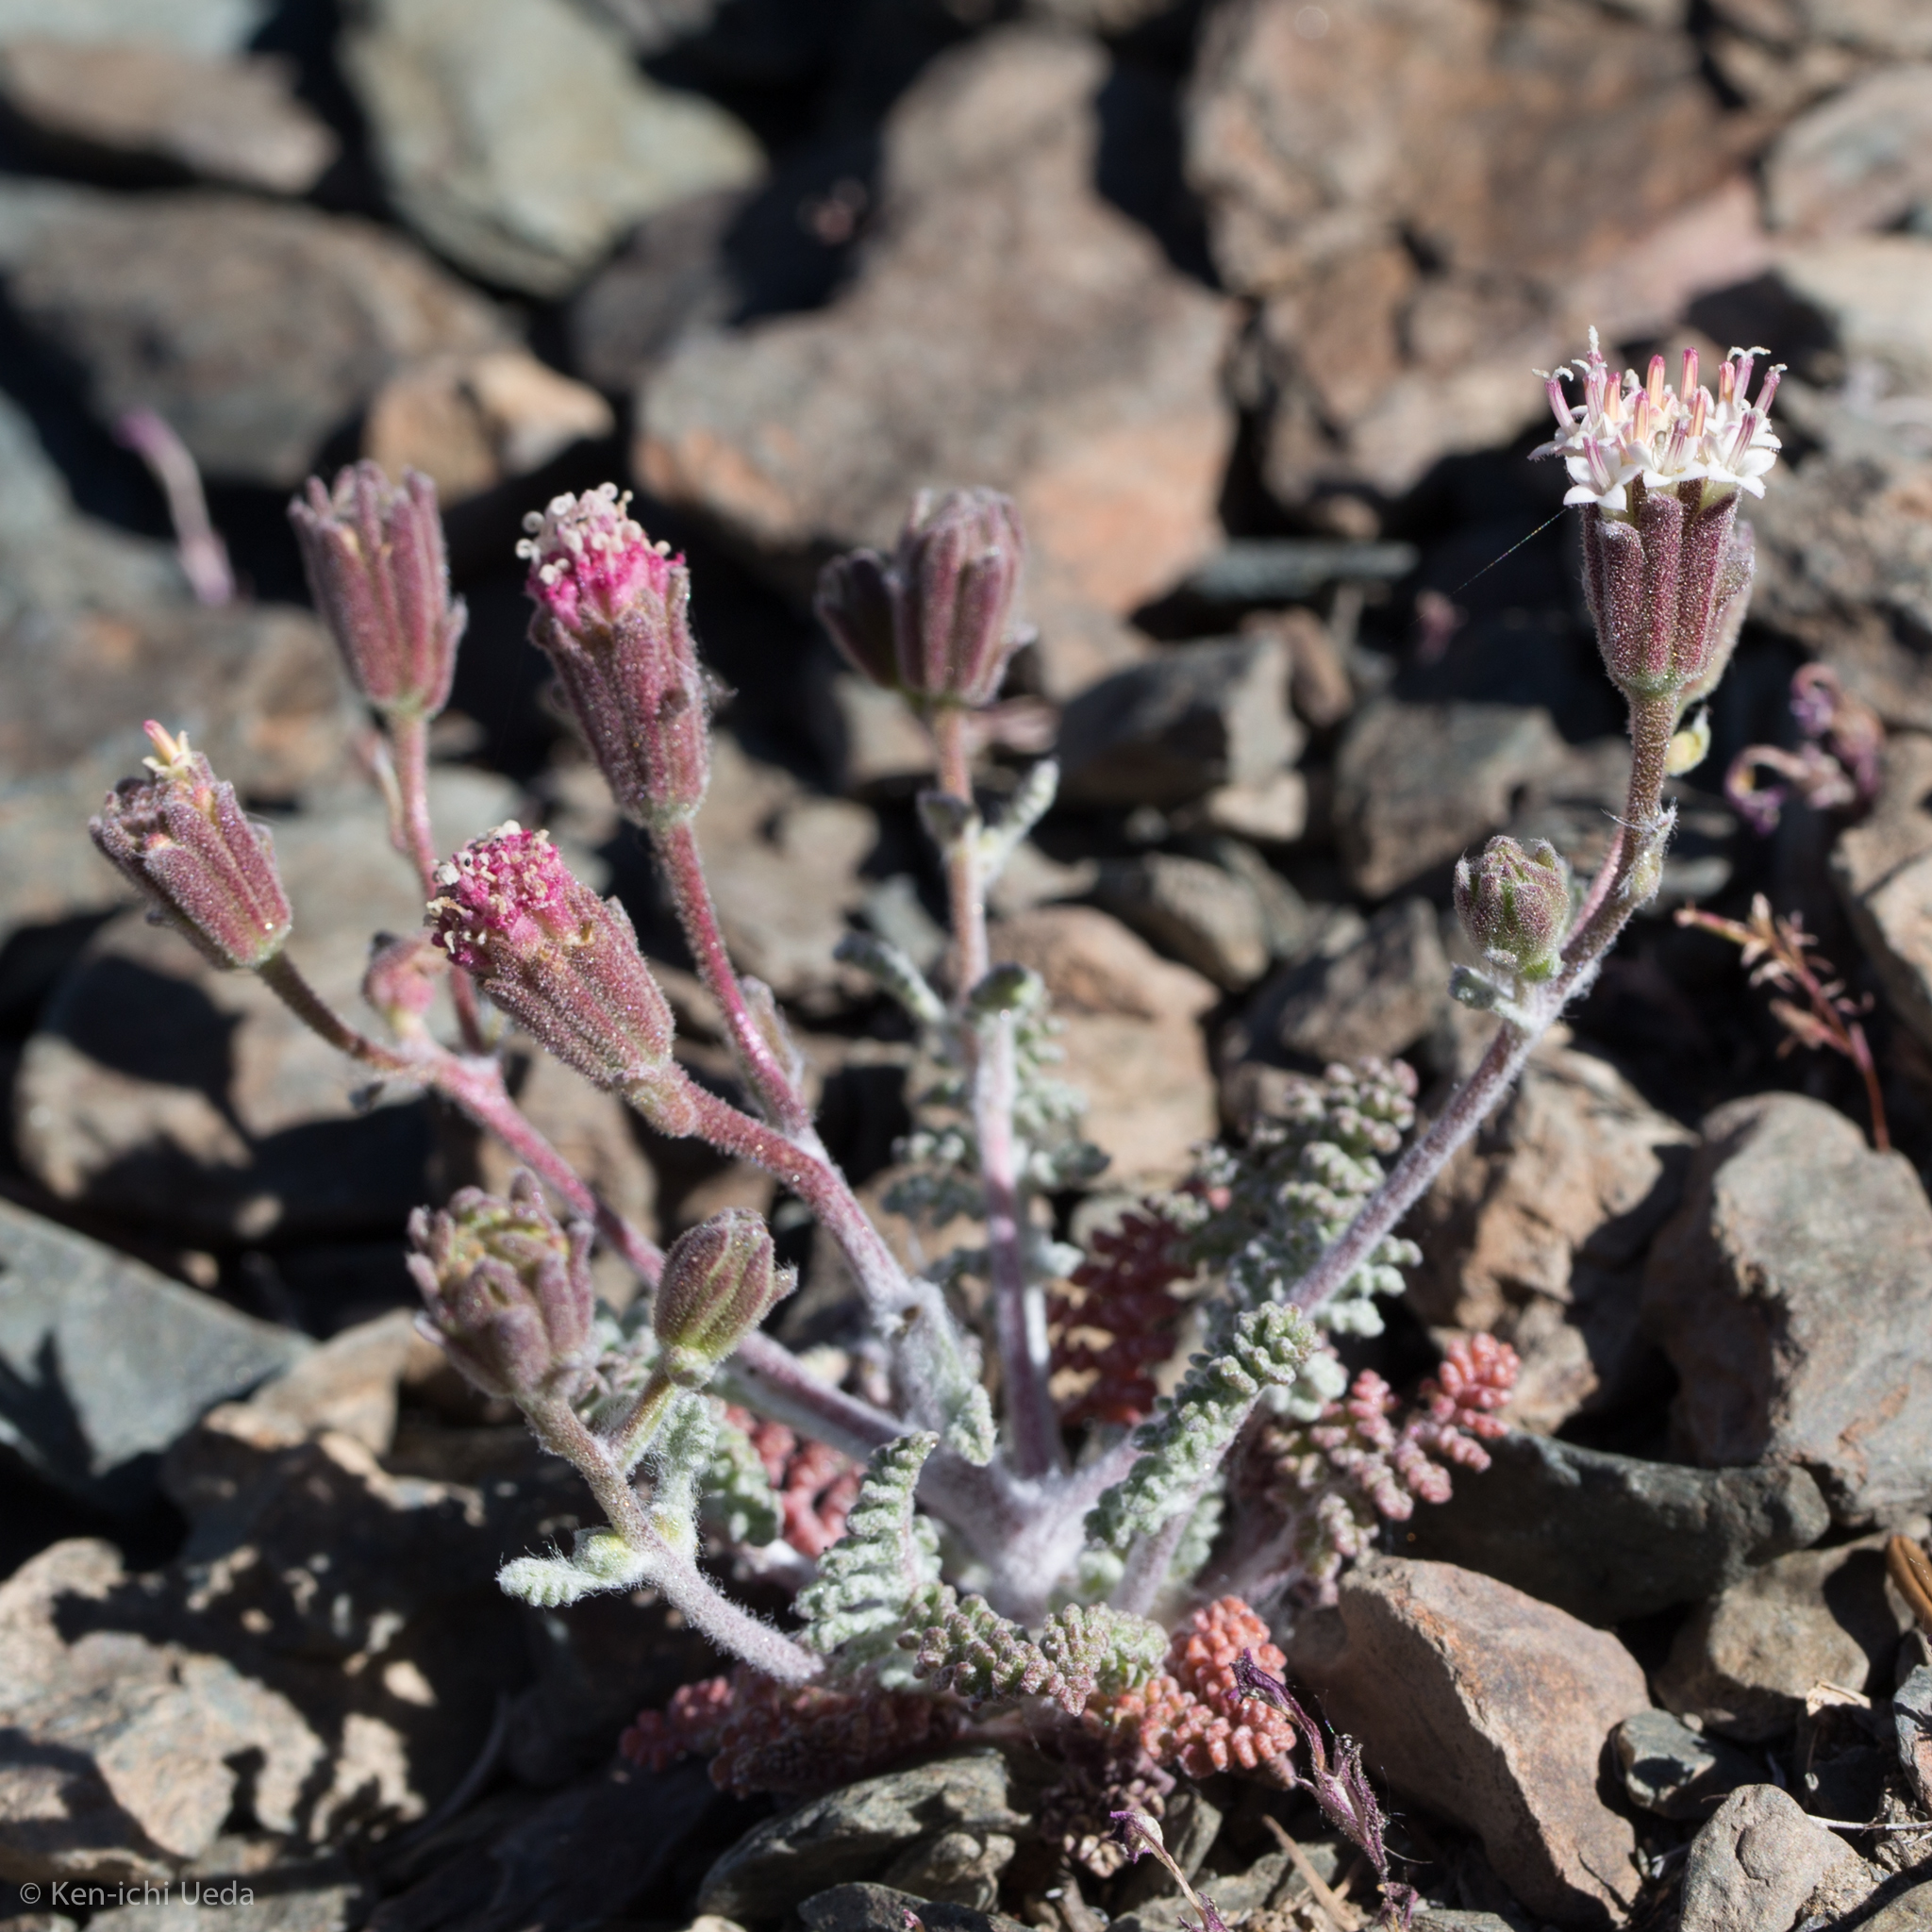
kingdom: Plantae
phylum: Tracheophyta
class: Magnoliopsida
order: Asterales
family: Asteraceae
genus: Chaenactis
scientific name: Chaenactis douglasii
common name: Hoary pincushion
